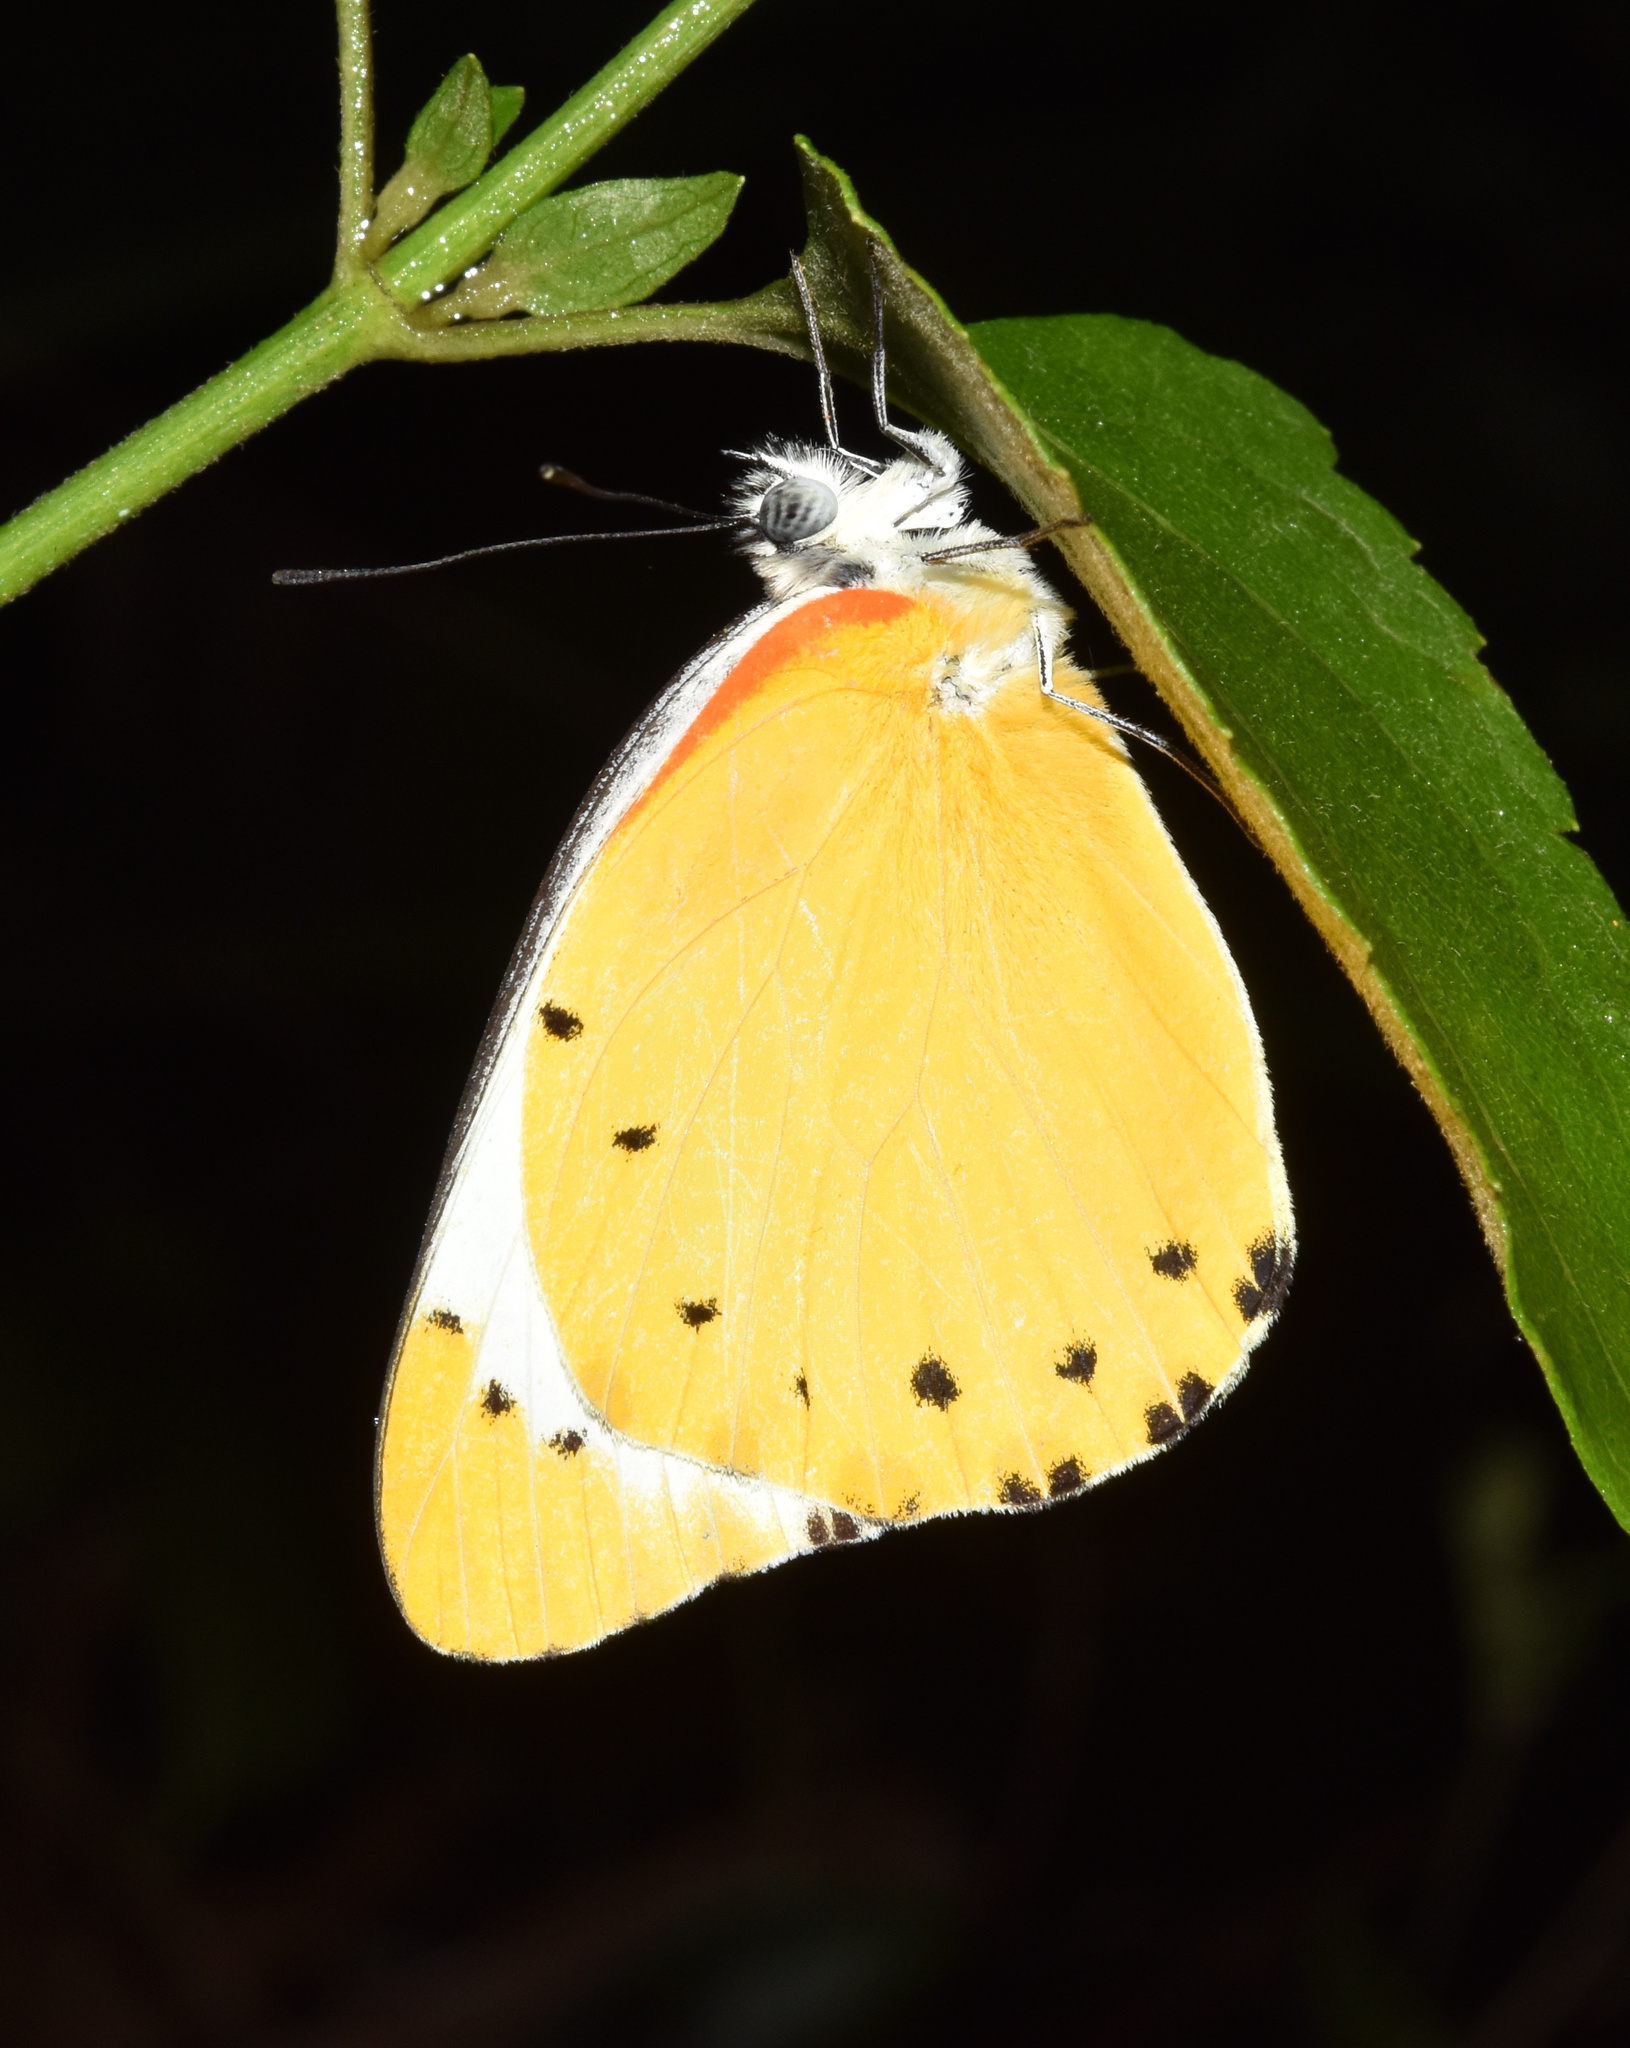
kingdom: Animalia
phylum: Arthropoda
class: Insecta
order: Lepidoptera
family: Pieridae
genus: Belenois
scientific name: Belenois thysa
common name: False dotted border
